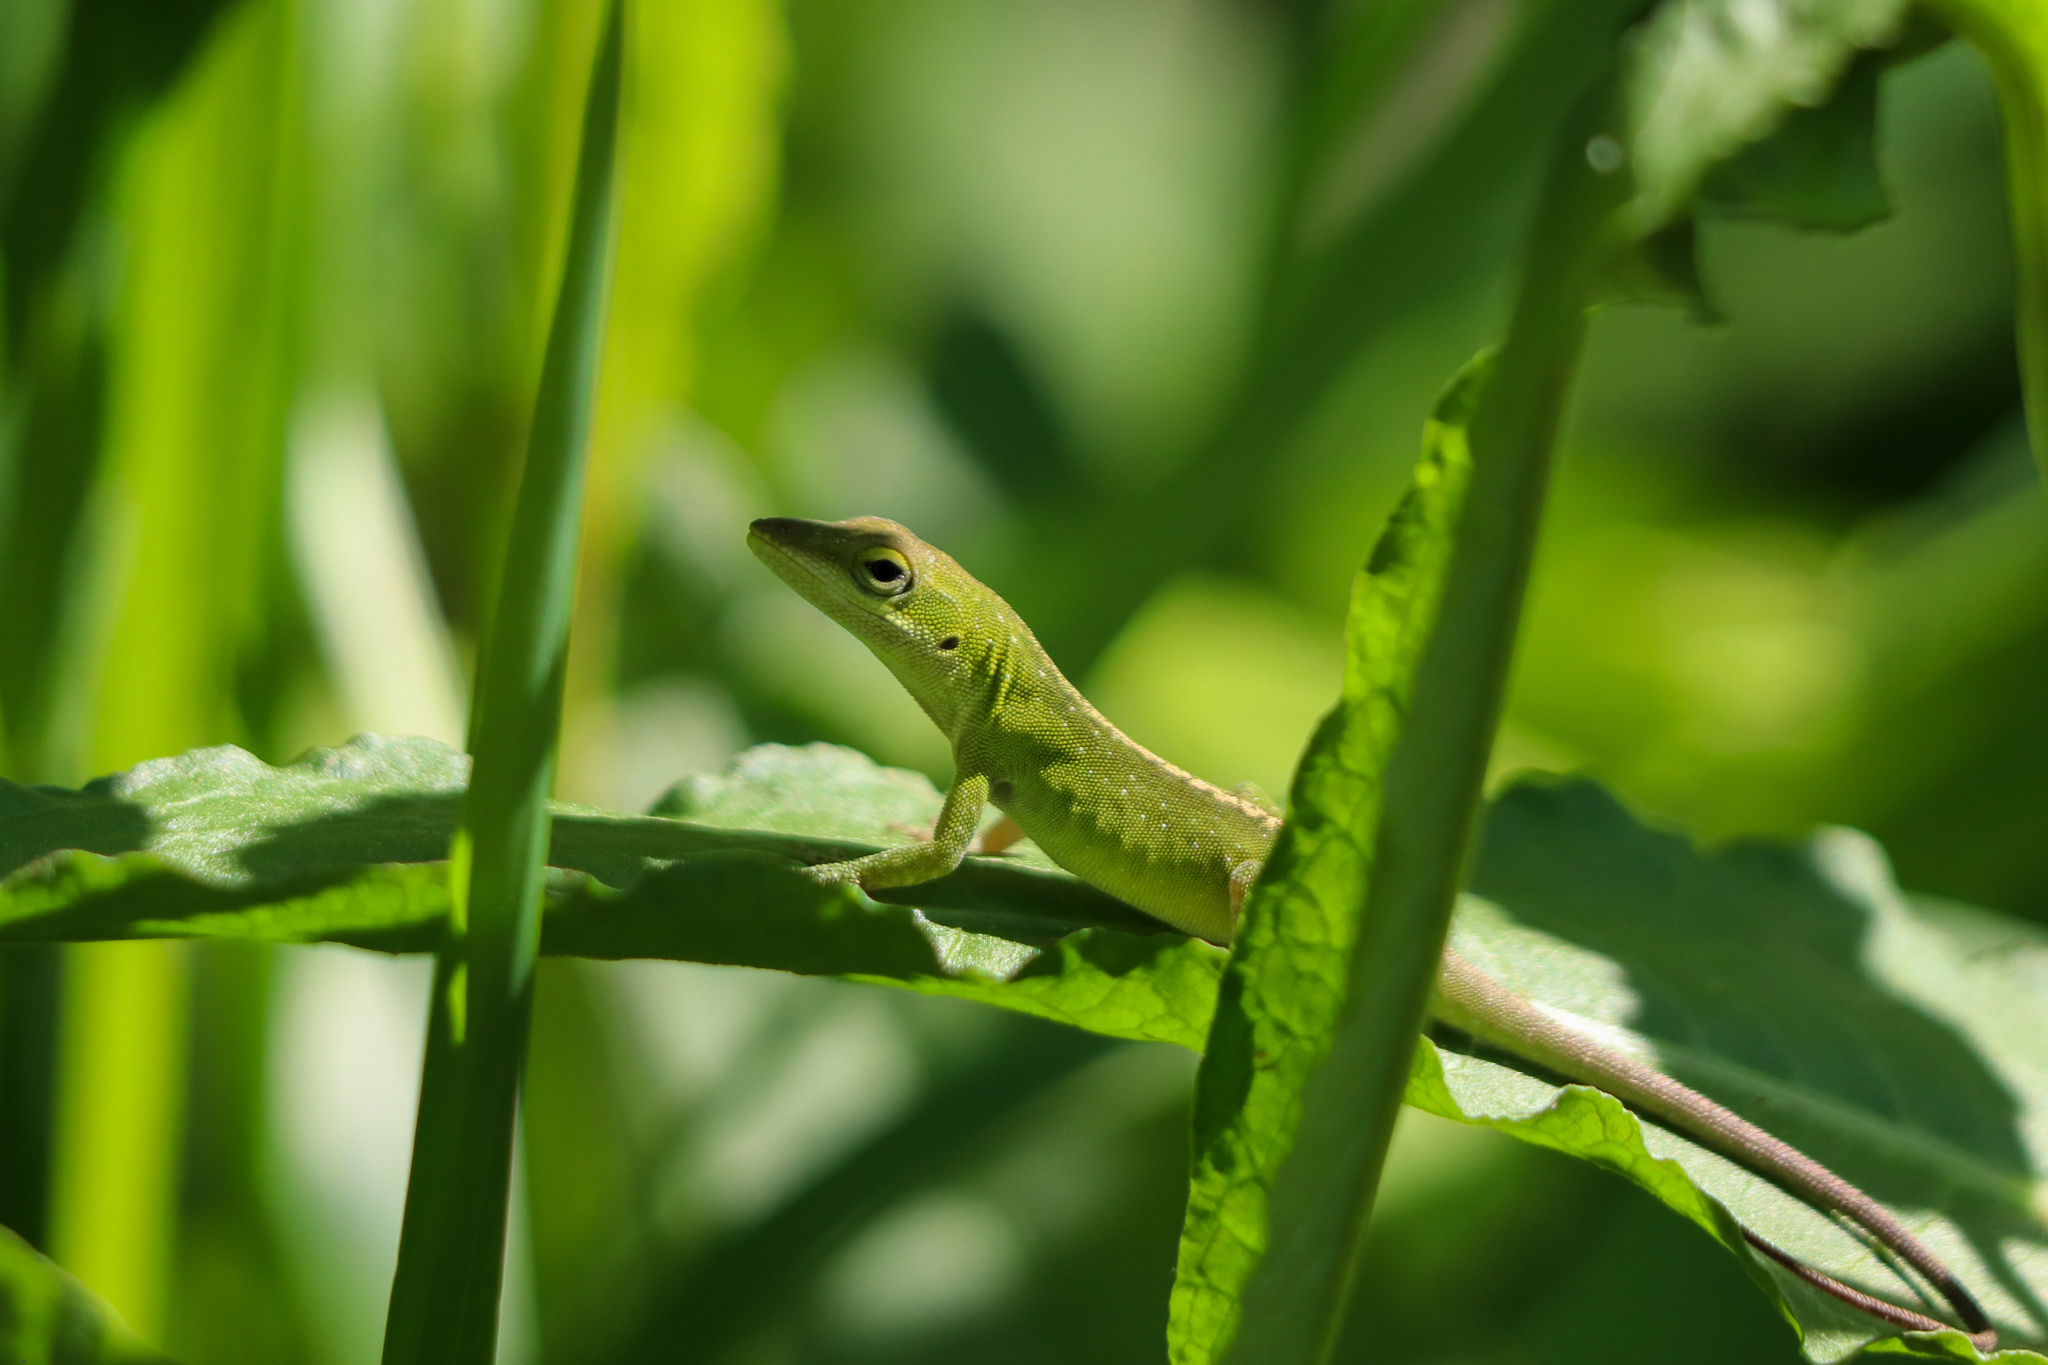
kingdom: Animalia
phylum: Chordata
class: Squamata
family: Dactyloidae
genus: Anolis
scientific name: Anolis carolinensis
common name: Green anole
